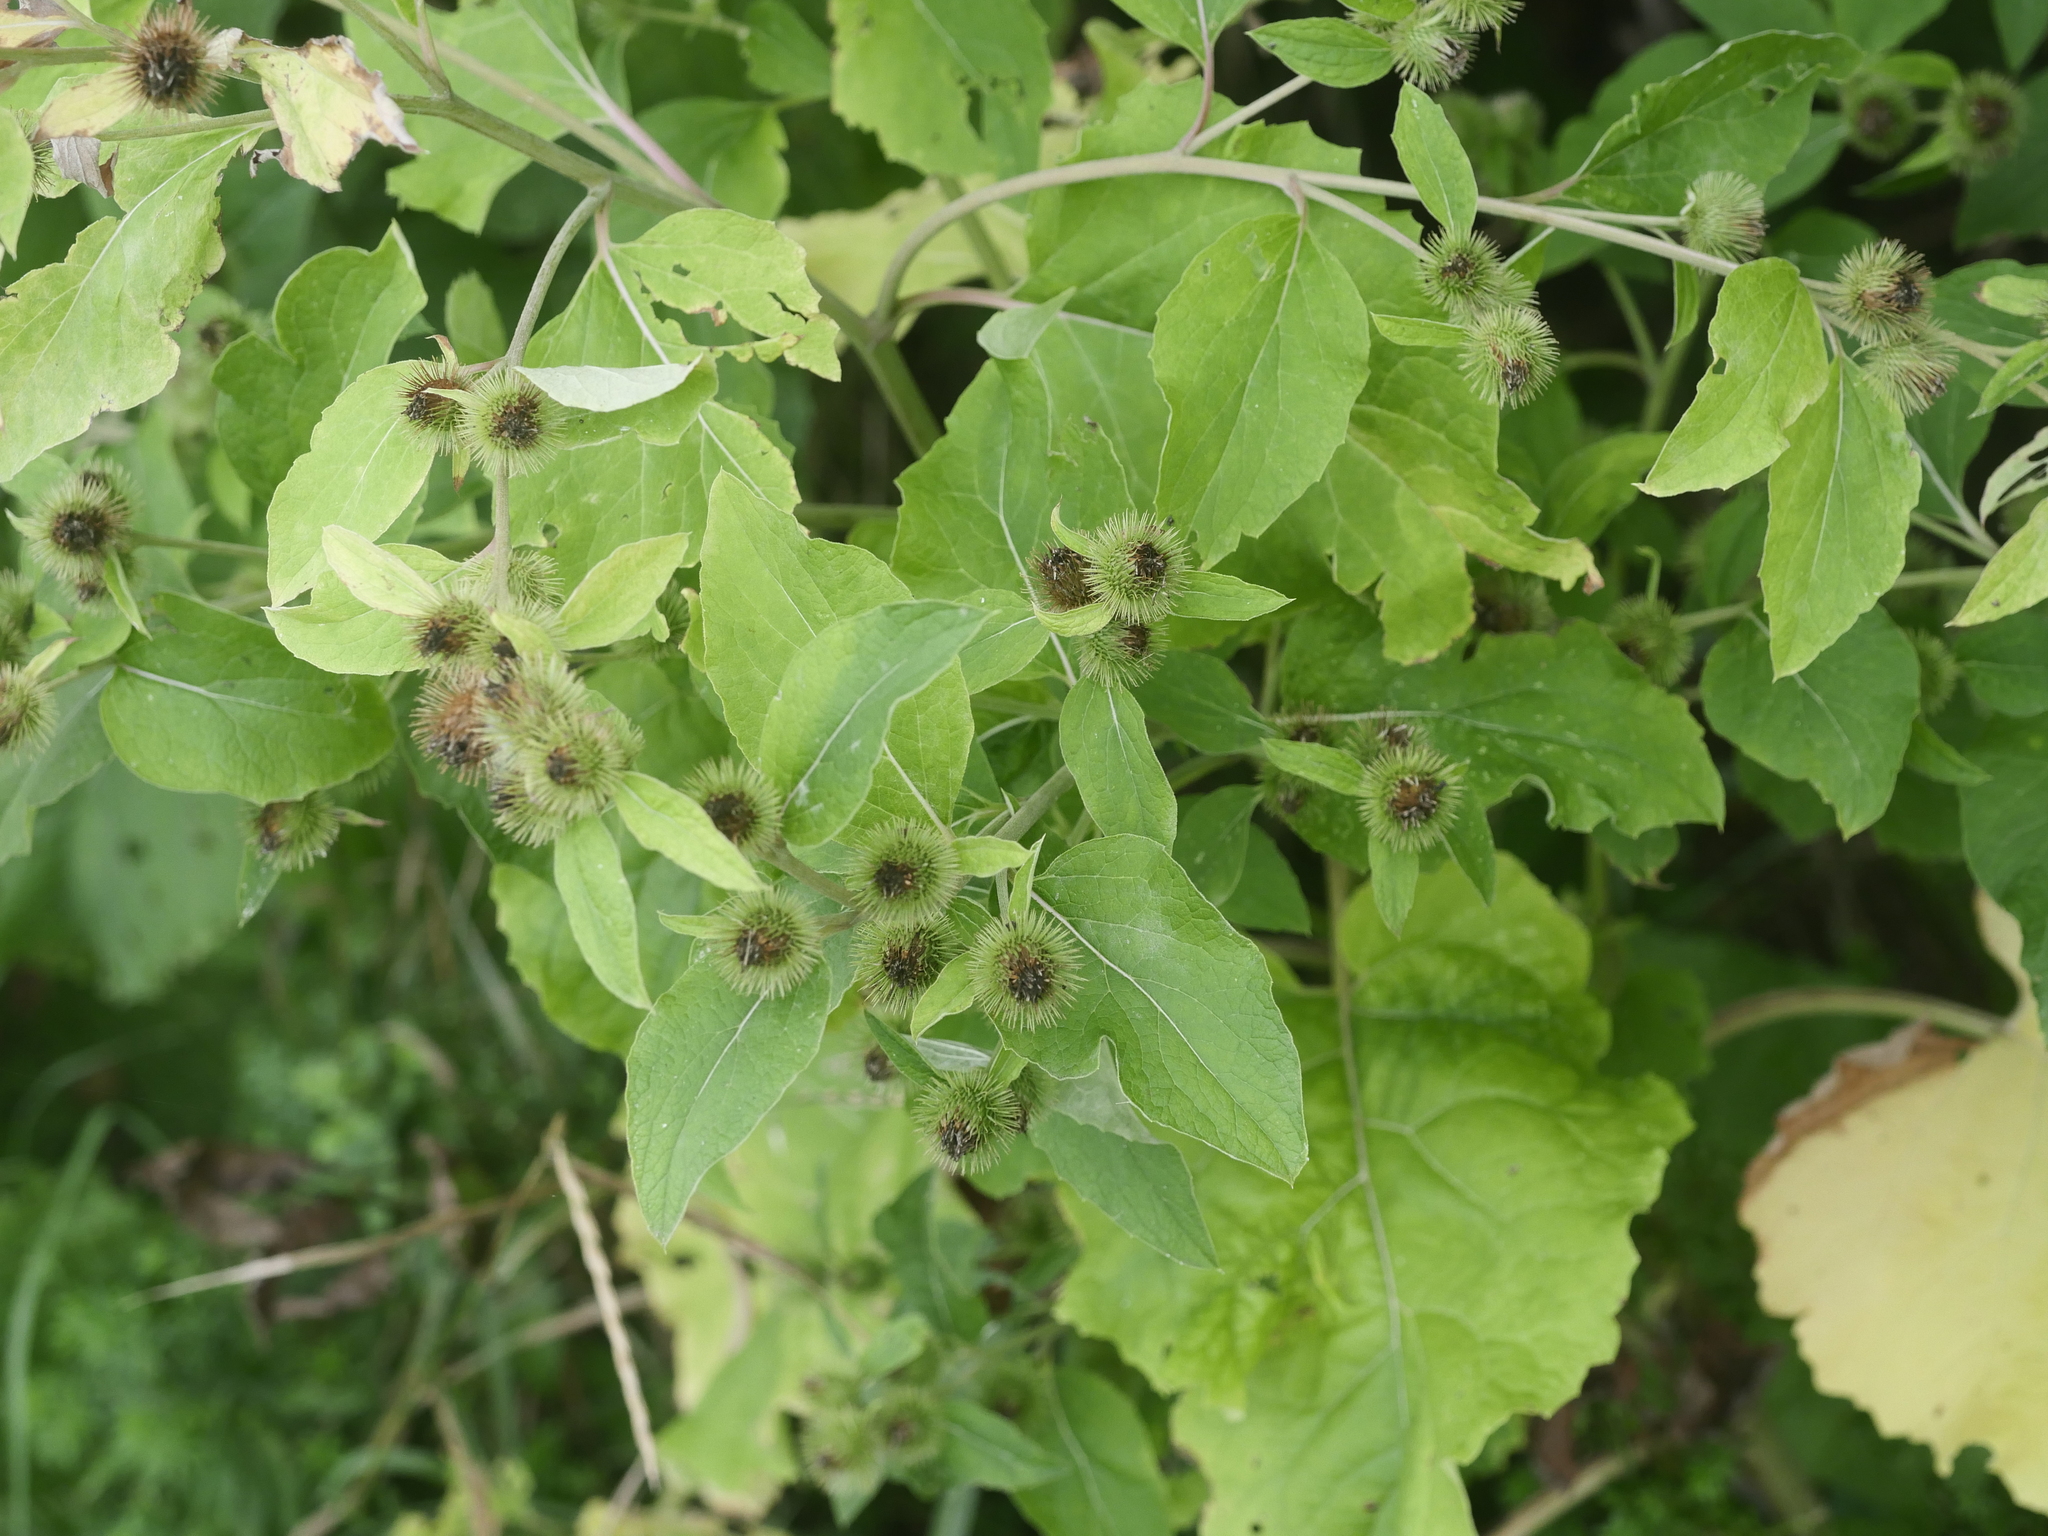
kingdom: Plantae
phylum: Tracheophyta
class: Magnoliopsida
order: Asterales
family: Asteraceae
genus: Arctium
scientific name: Arctium minus
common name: Lesser burdock
